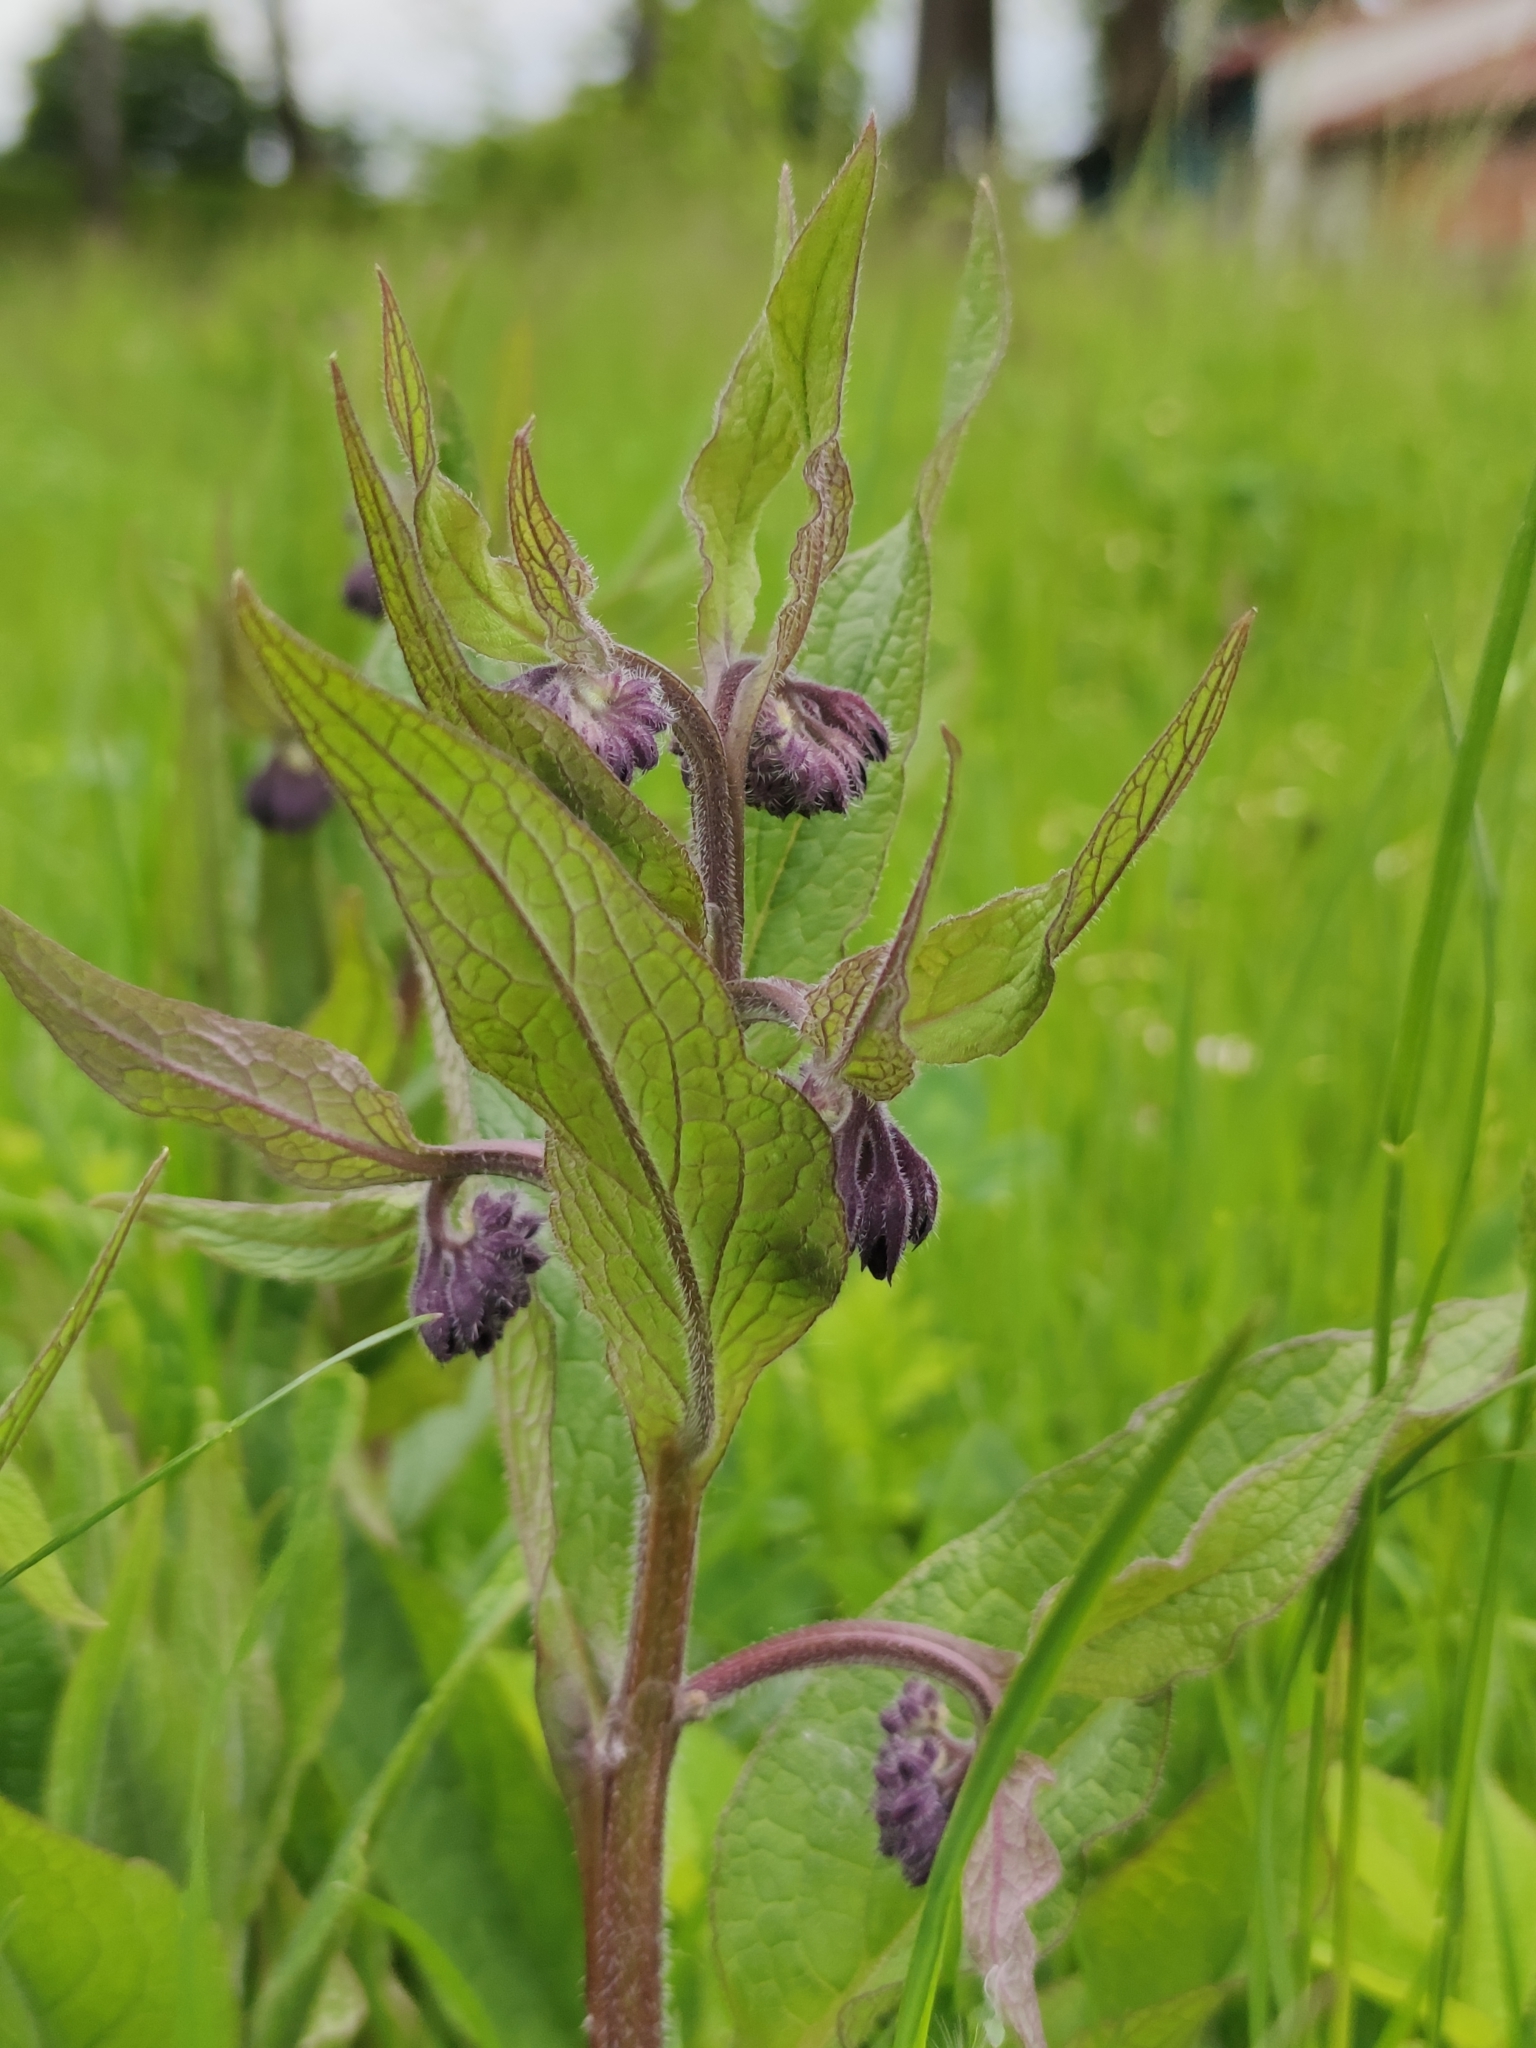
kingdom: Plantae
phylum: Tracheophyta
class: Magnoliopsida
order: Boraginales
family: Boraginaceae
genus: Symphytum
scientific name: Symphytum officinale
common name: Common comfrey
